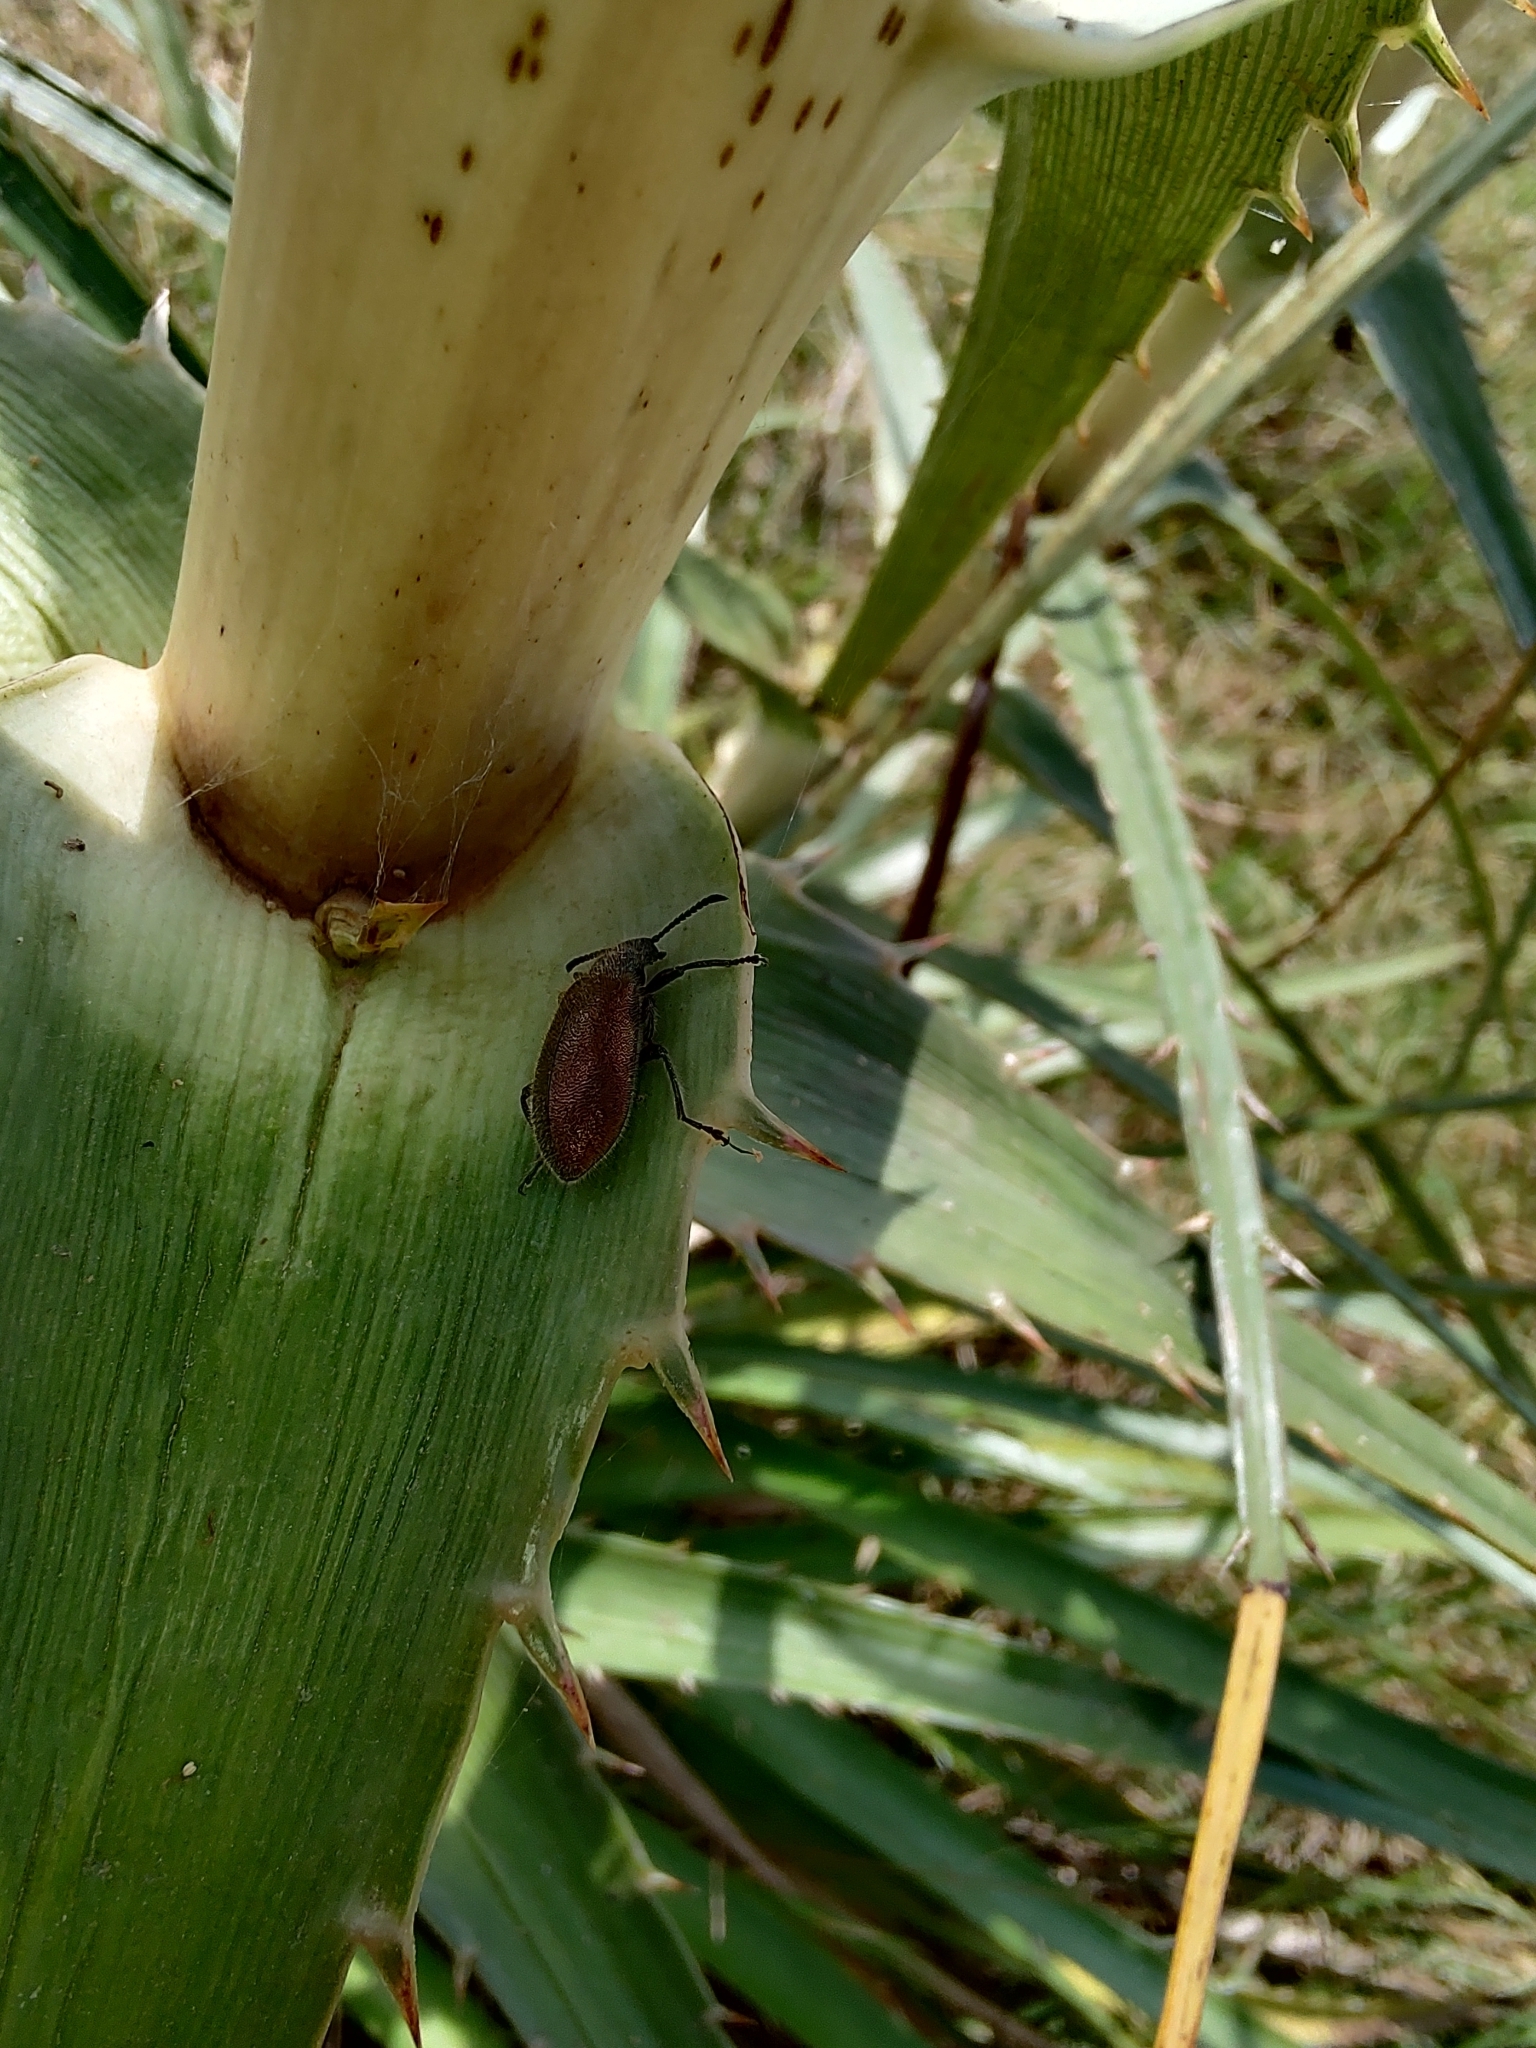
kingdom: Animalia
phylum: Arthropoda
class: Insecta
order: Coleoptera
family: Tenebrionidae
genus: Lagria
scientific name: Lagria villosa
